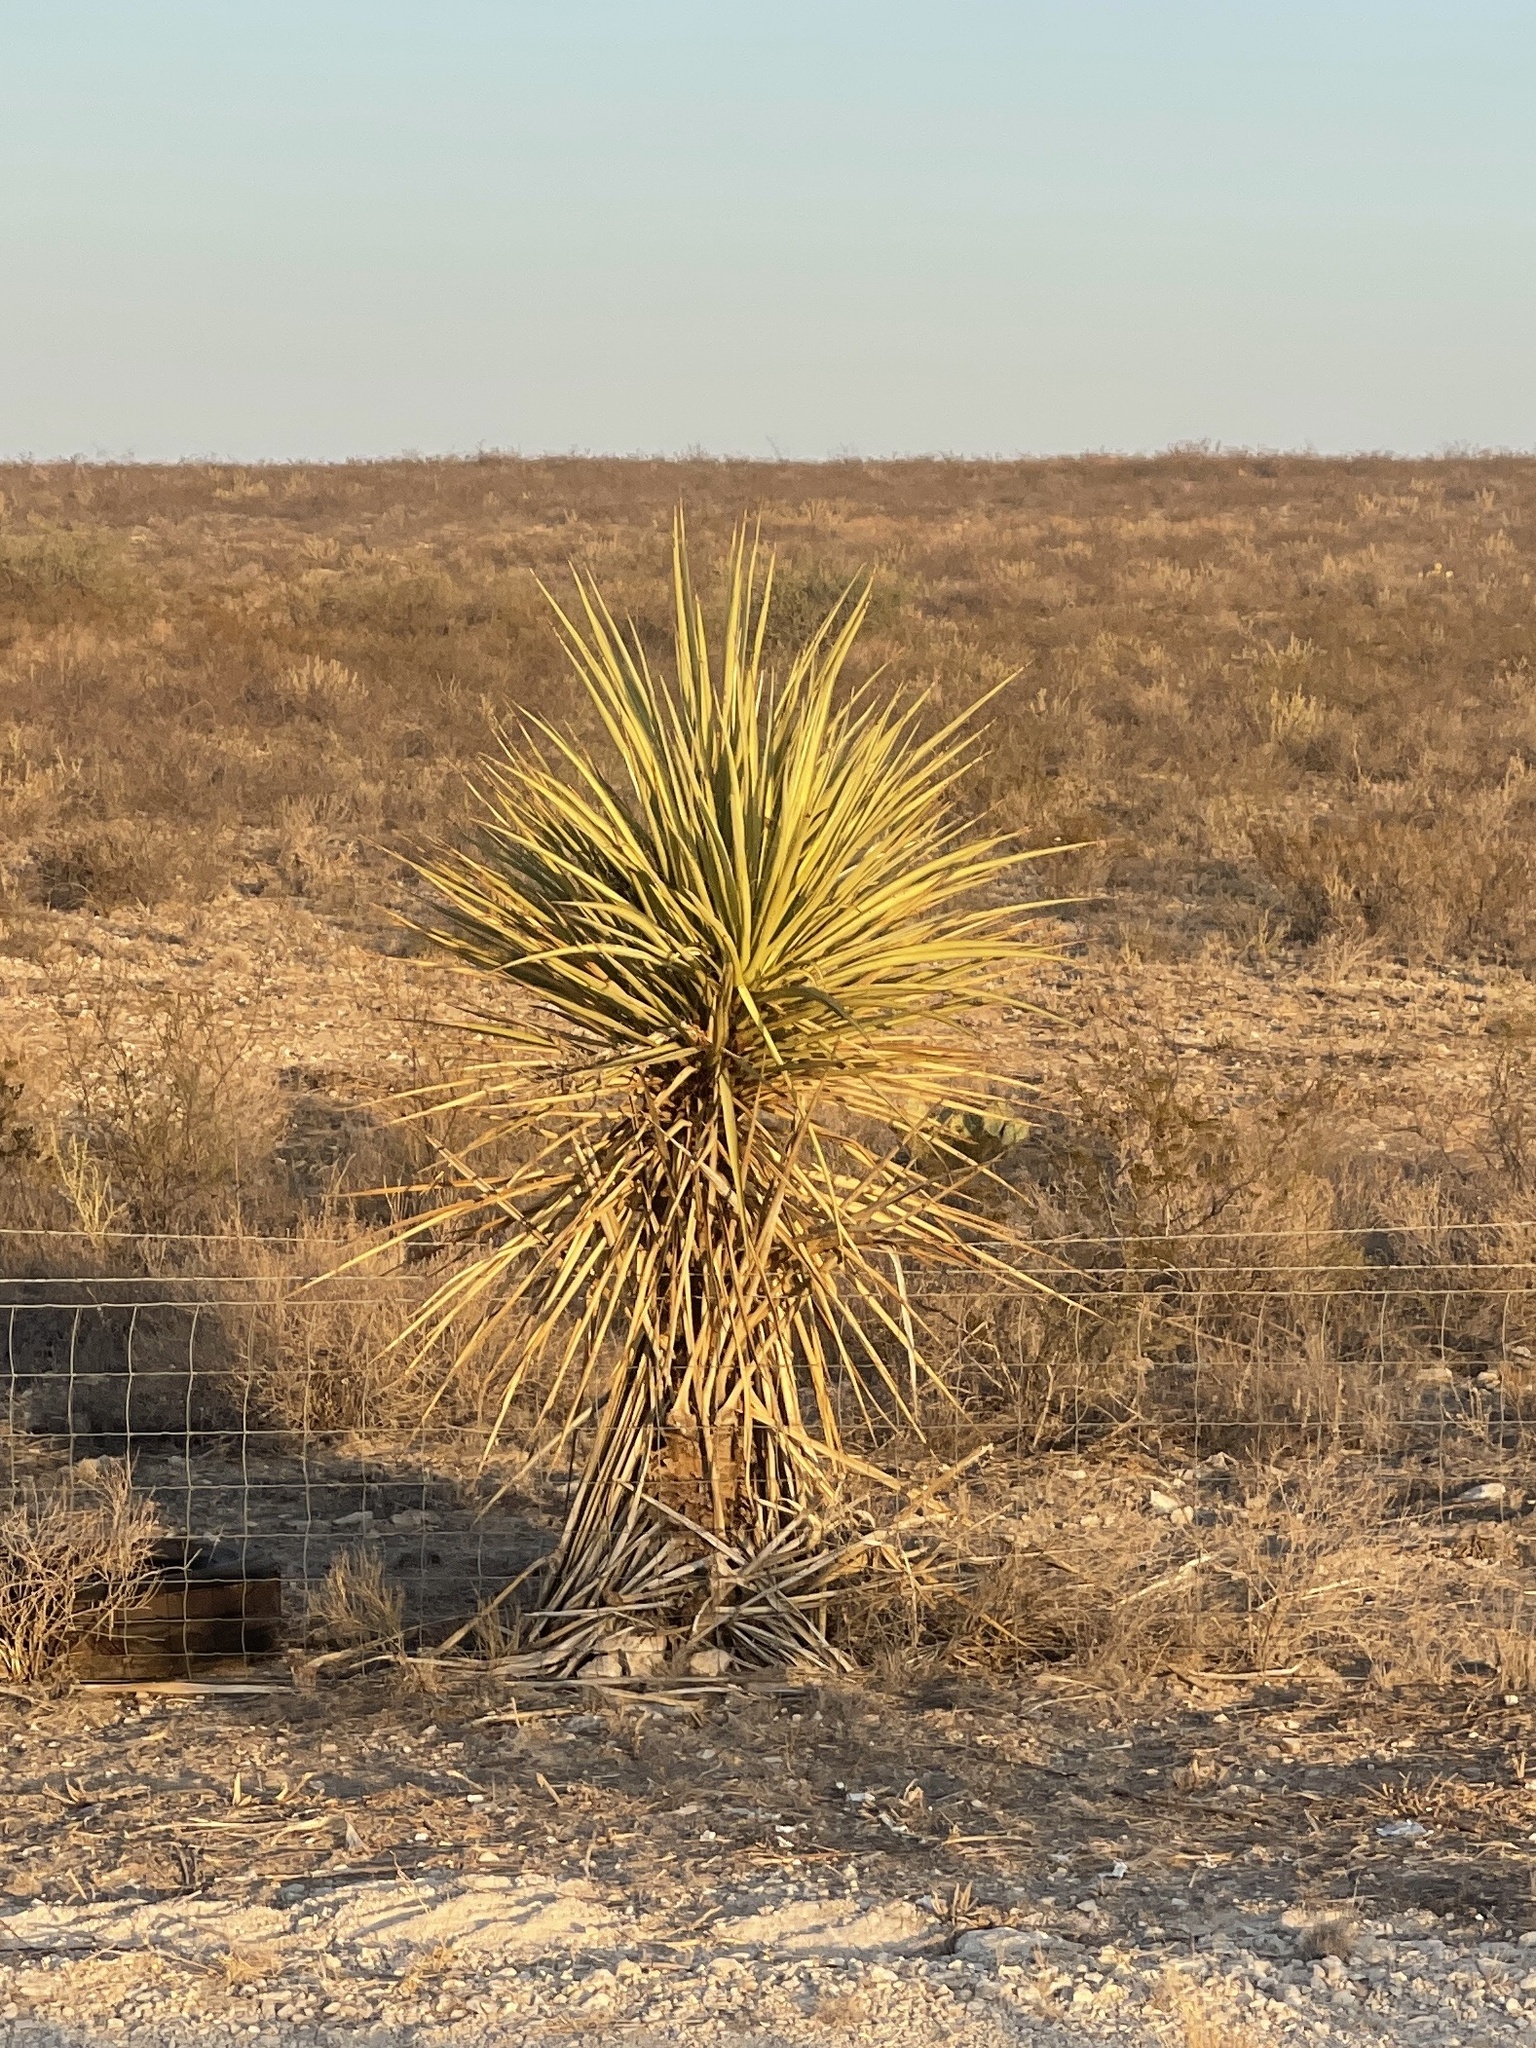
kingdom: Plantae
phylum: Tracheophyta
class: Liliopsida
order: Asparagales
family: Asparagaceae
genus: Yucca
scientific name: Yucca treculiana
